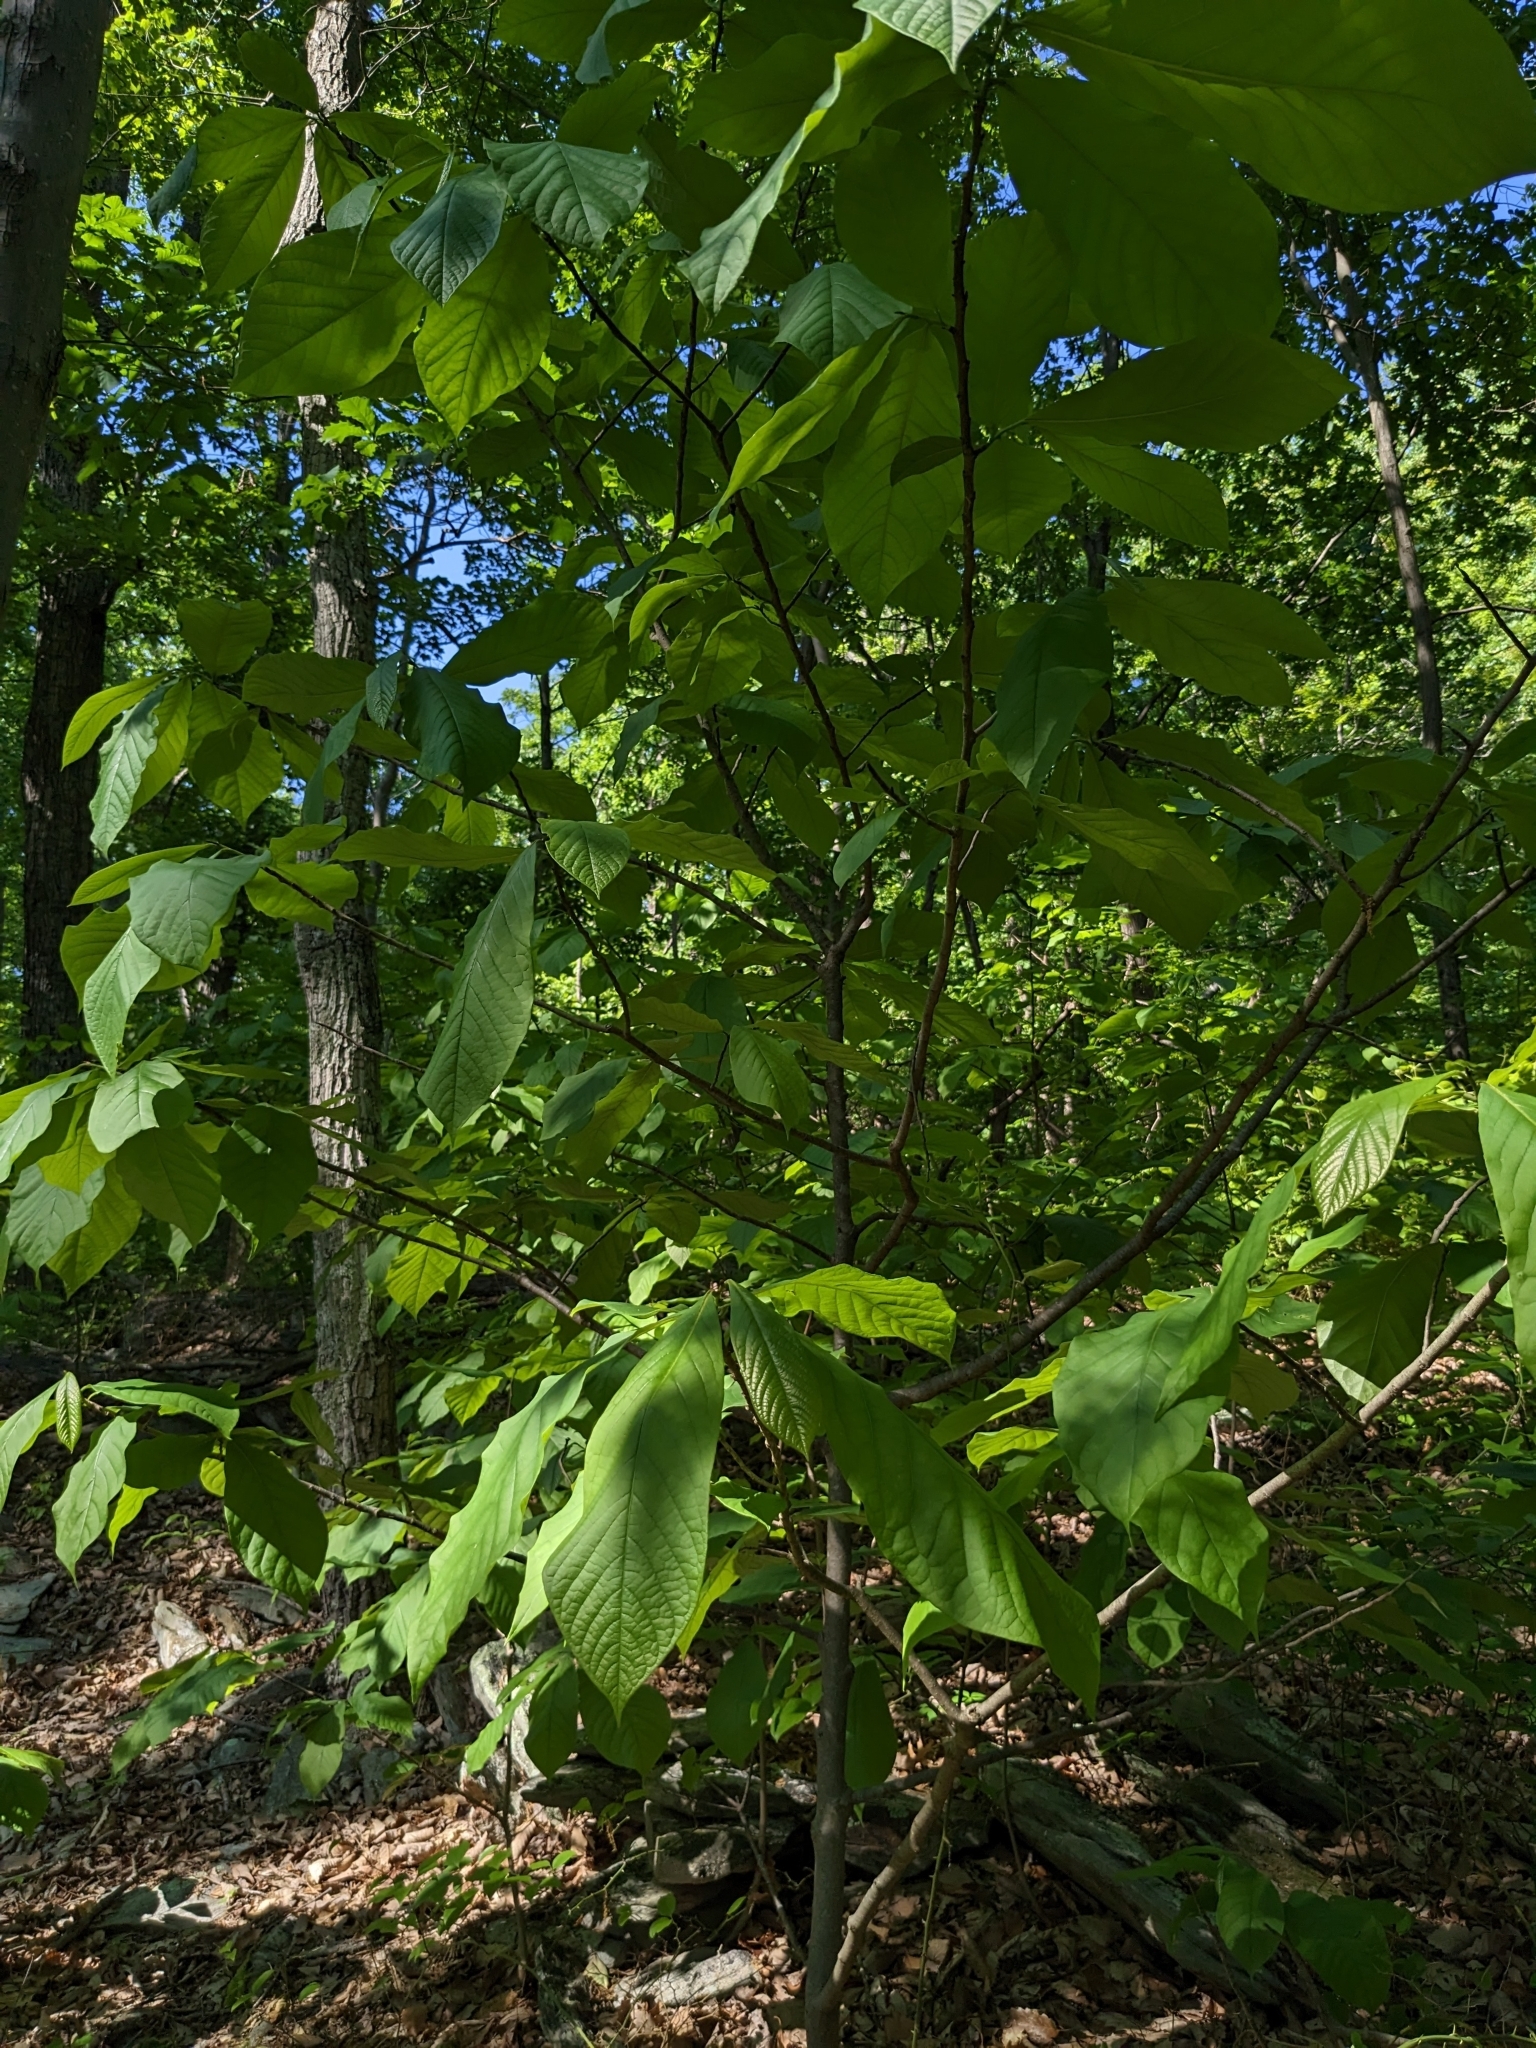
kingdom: Plantae
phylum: Tracheophyta
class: Magnoliopsida
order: Magnoliales
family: Annonaceae
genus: Asimina
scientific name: Asimina triloba
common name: Dog-banana
